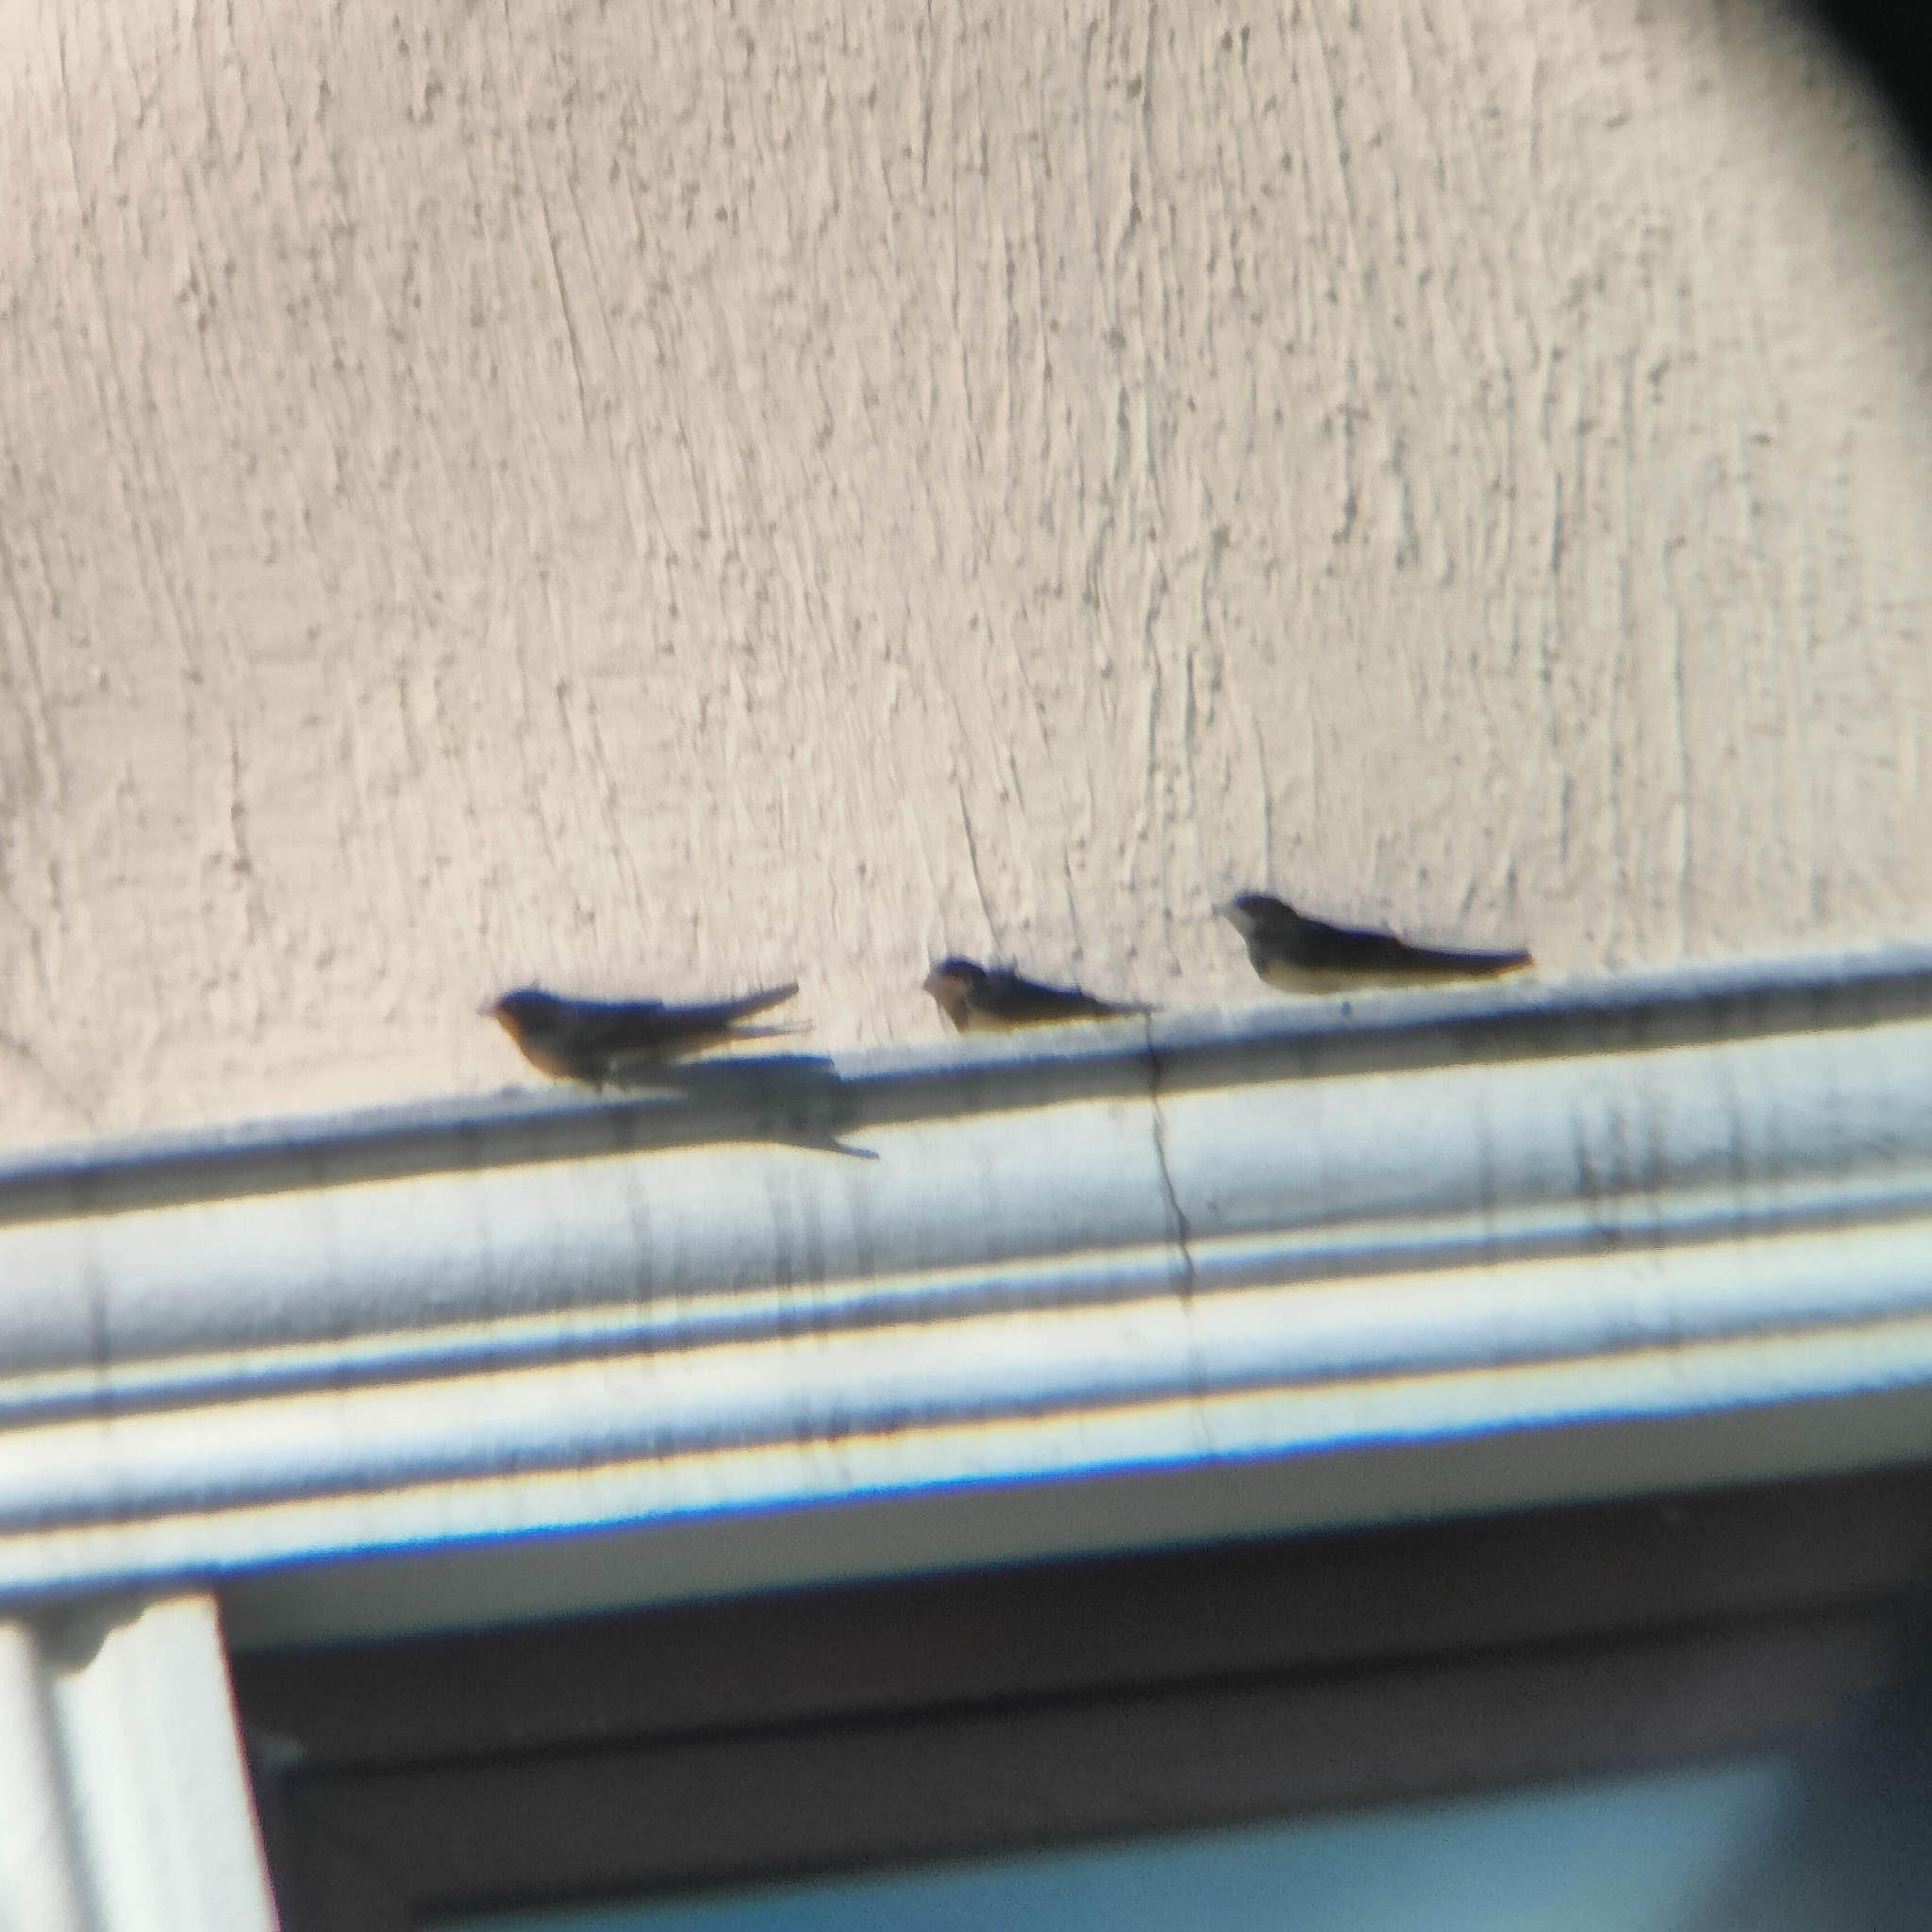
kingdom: Animalia
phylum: Chordata
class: Aves
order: Passeriformes
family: Hirundinidae
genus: Hirundo
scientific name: Hirundo rustica
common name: Barn swallow
